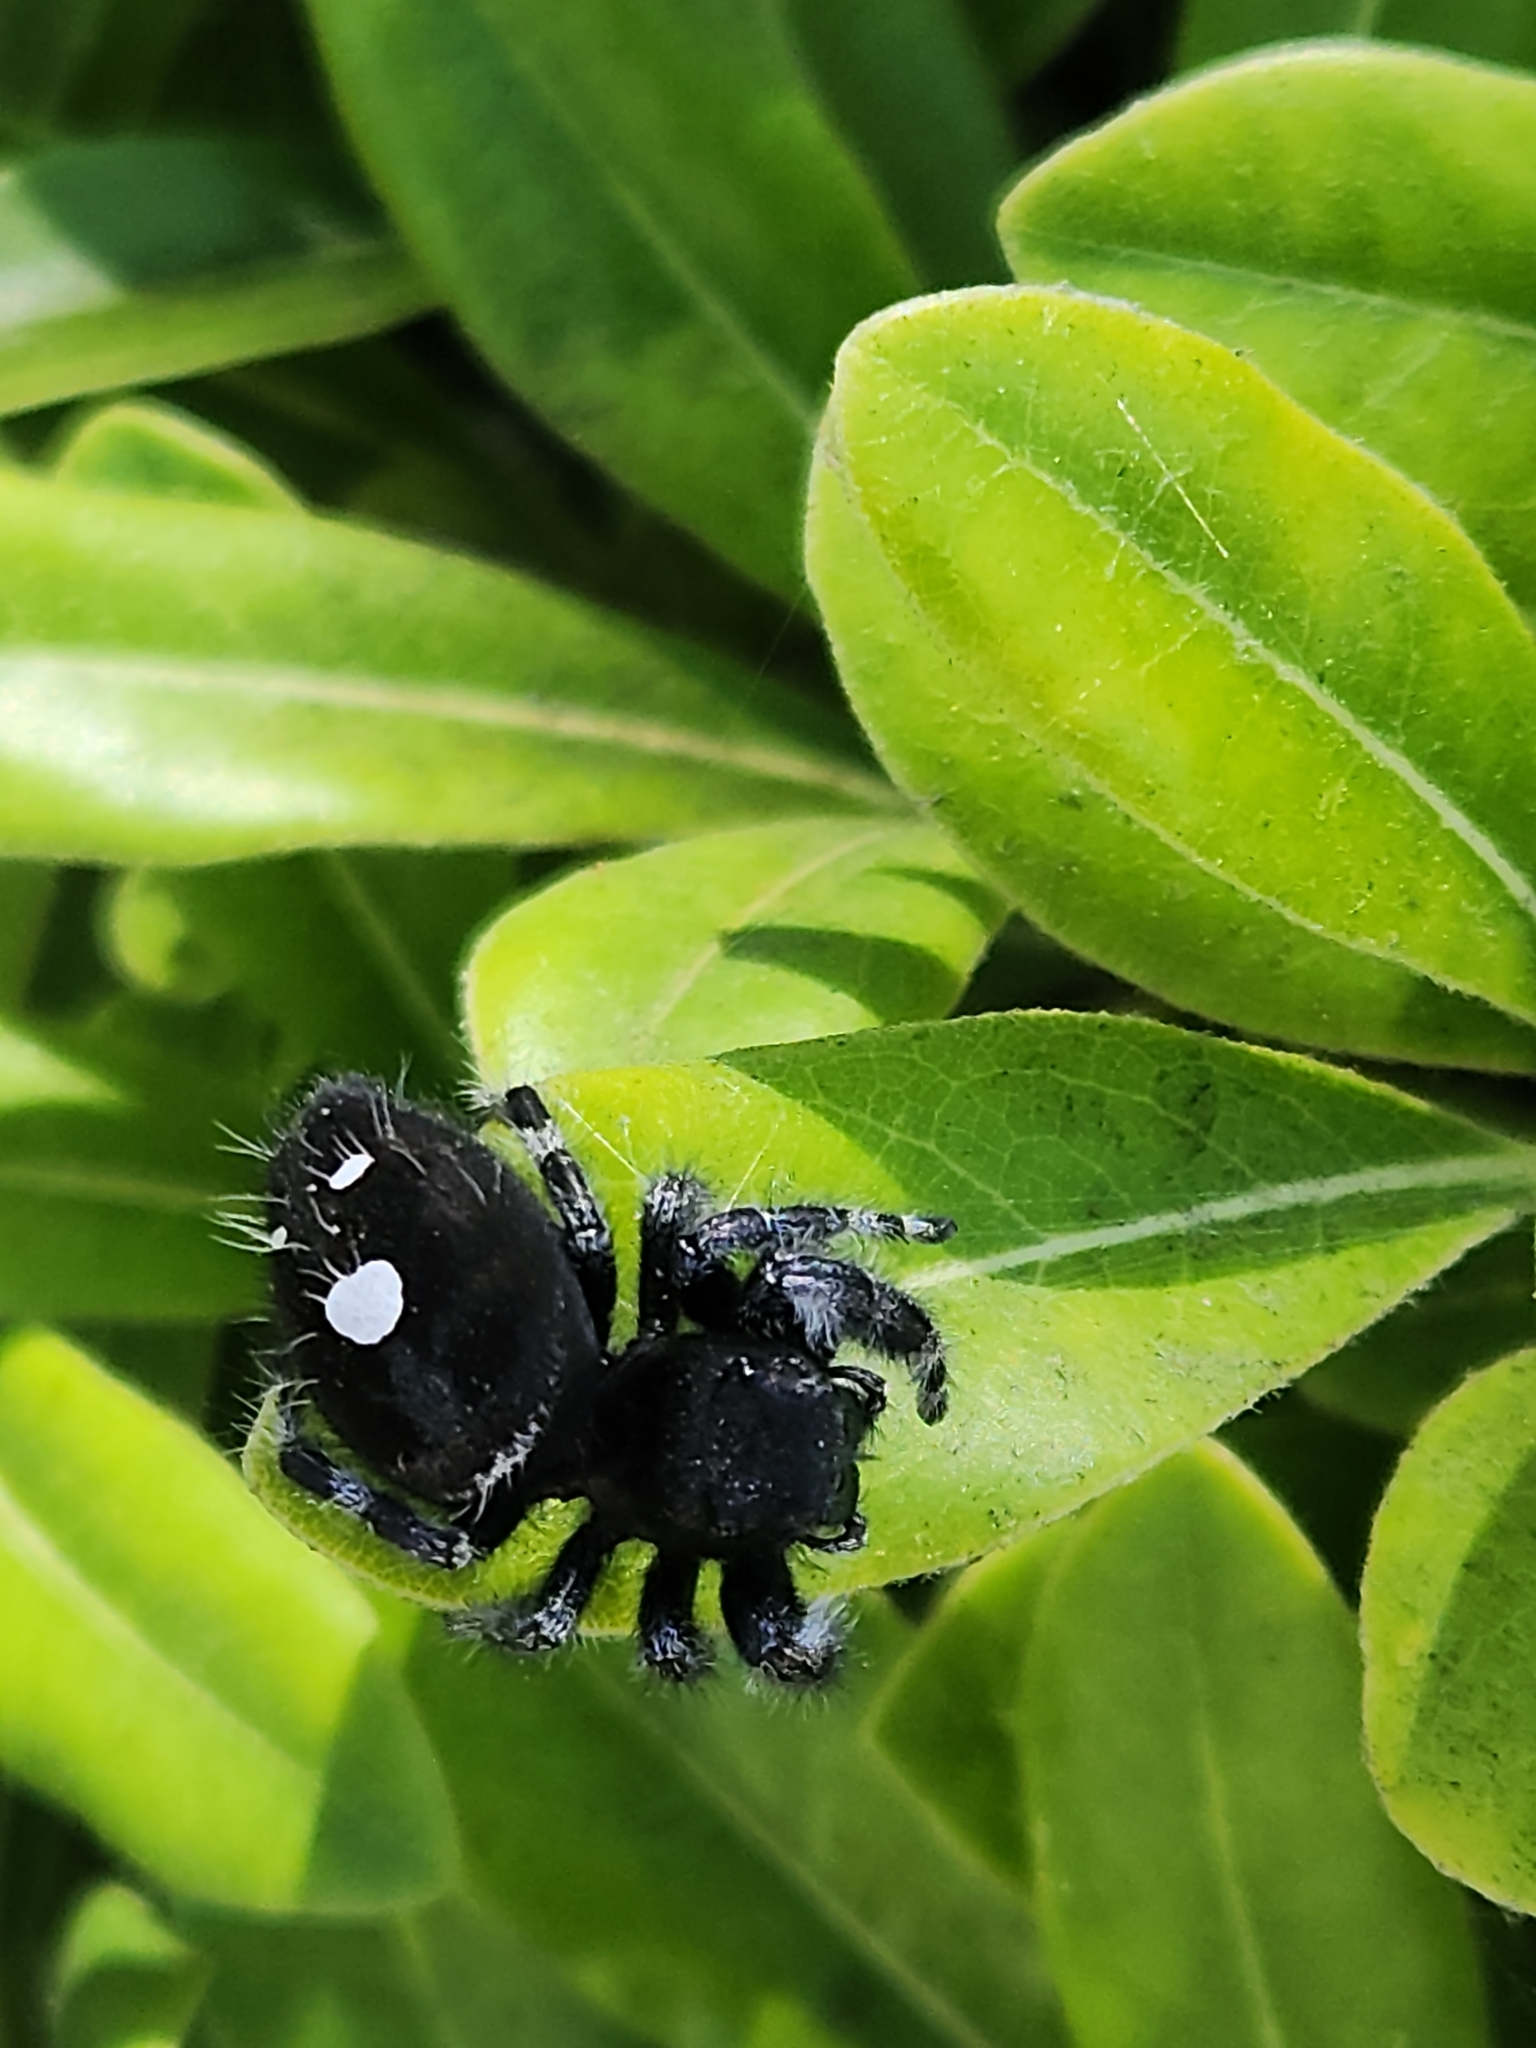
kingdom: Animalia
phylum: Arthropoda
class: Arachnida
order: Araneae
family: Salticidae
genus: Phidippus
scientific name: Phidippus audax
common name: Bold jumper
